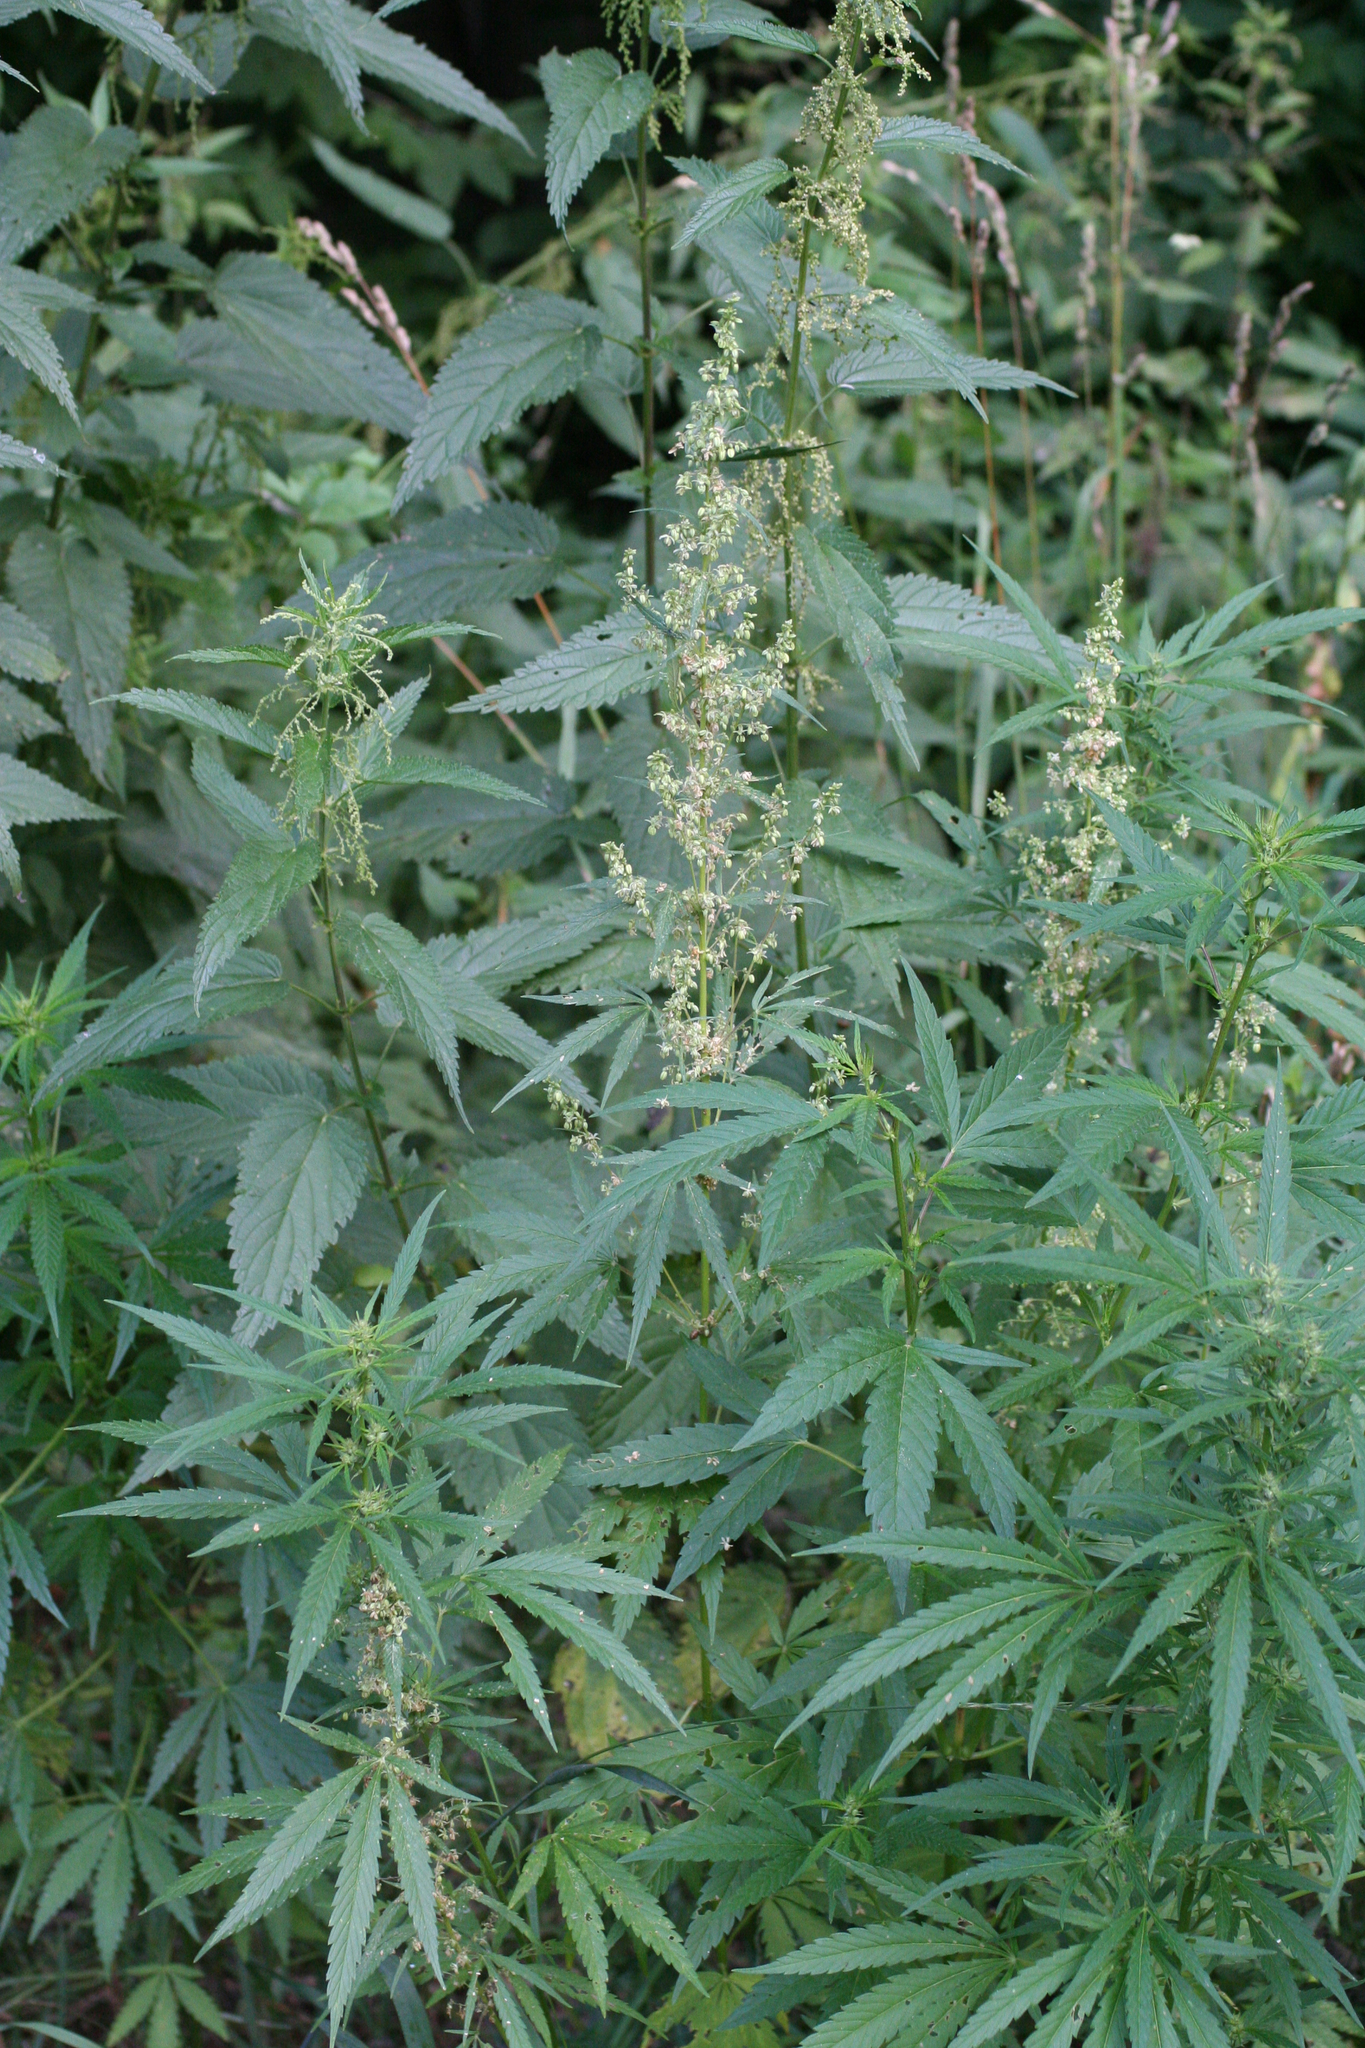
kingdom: Plantae
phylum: Tracheophyta
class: Magnoliopsida
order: Rosales
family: Cannabaceae
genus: Cannabis
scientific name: Cannabis sativa
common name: Hemp
